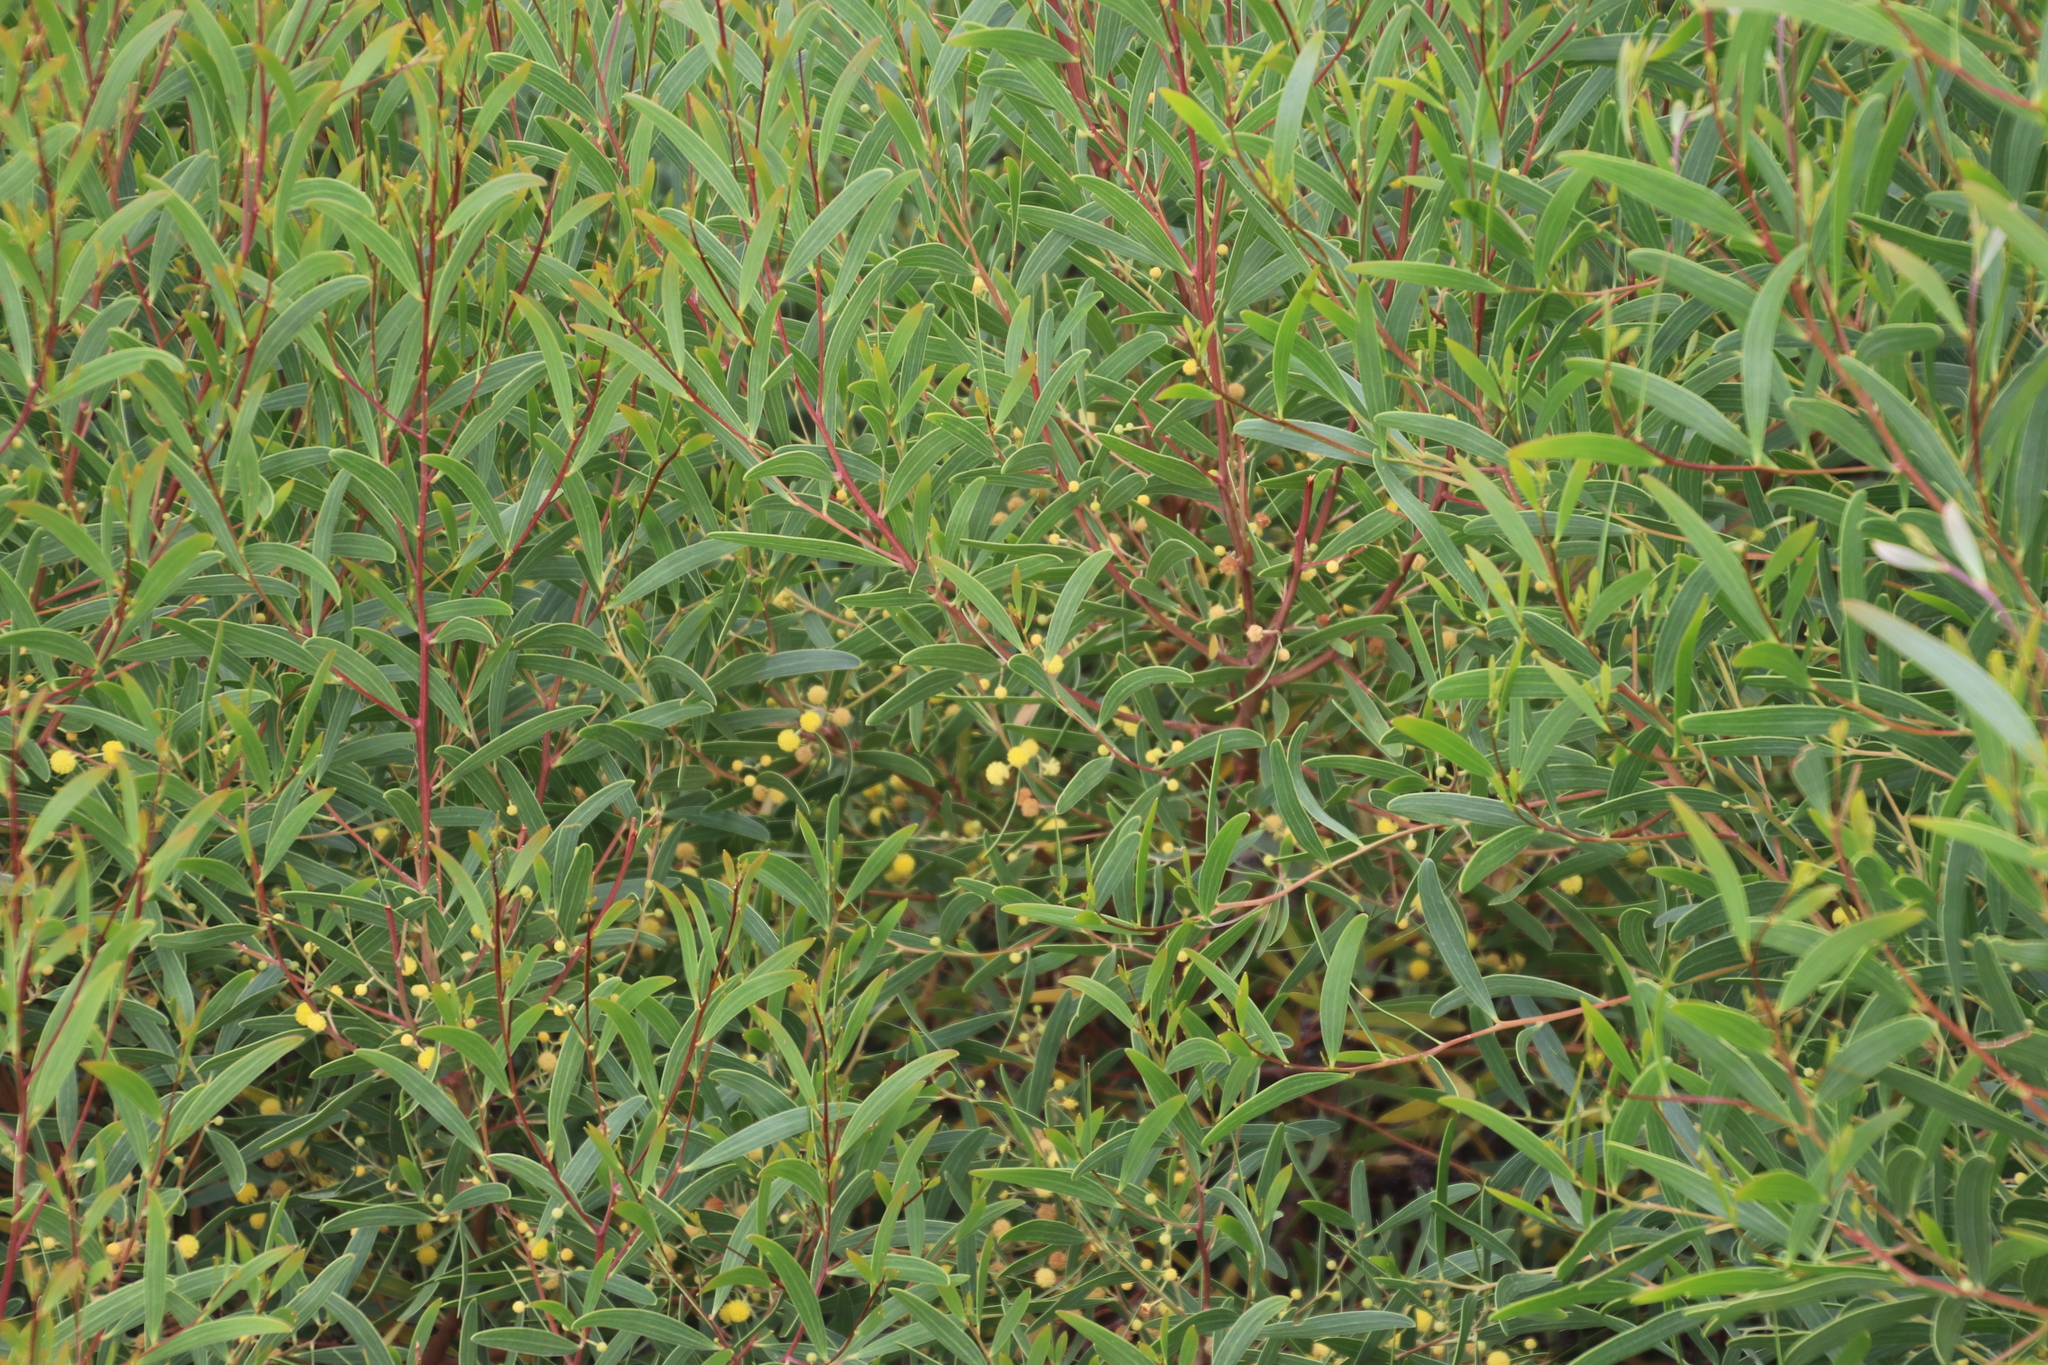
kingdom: Plantae
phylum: Tracheophyta
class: Magnoliopsida
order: Fabales
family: Fabaceae
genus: Acacia
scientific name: Acacia cyclops
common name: Coastal wattle
